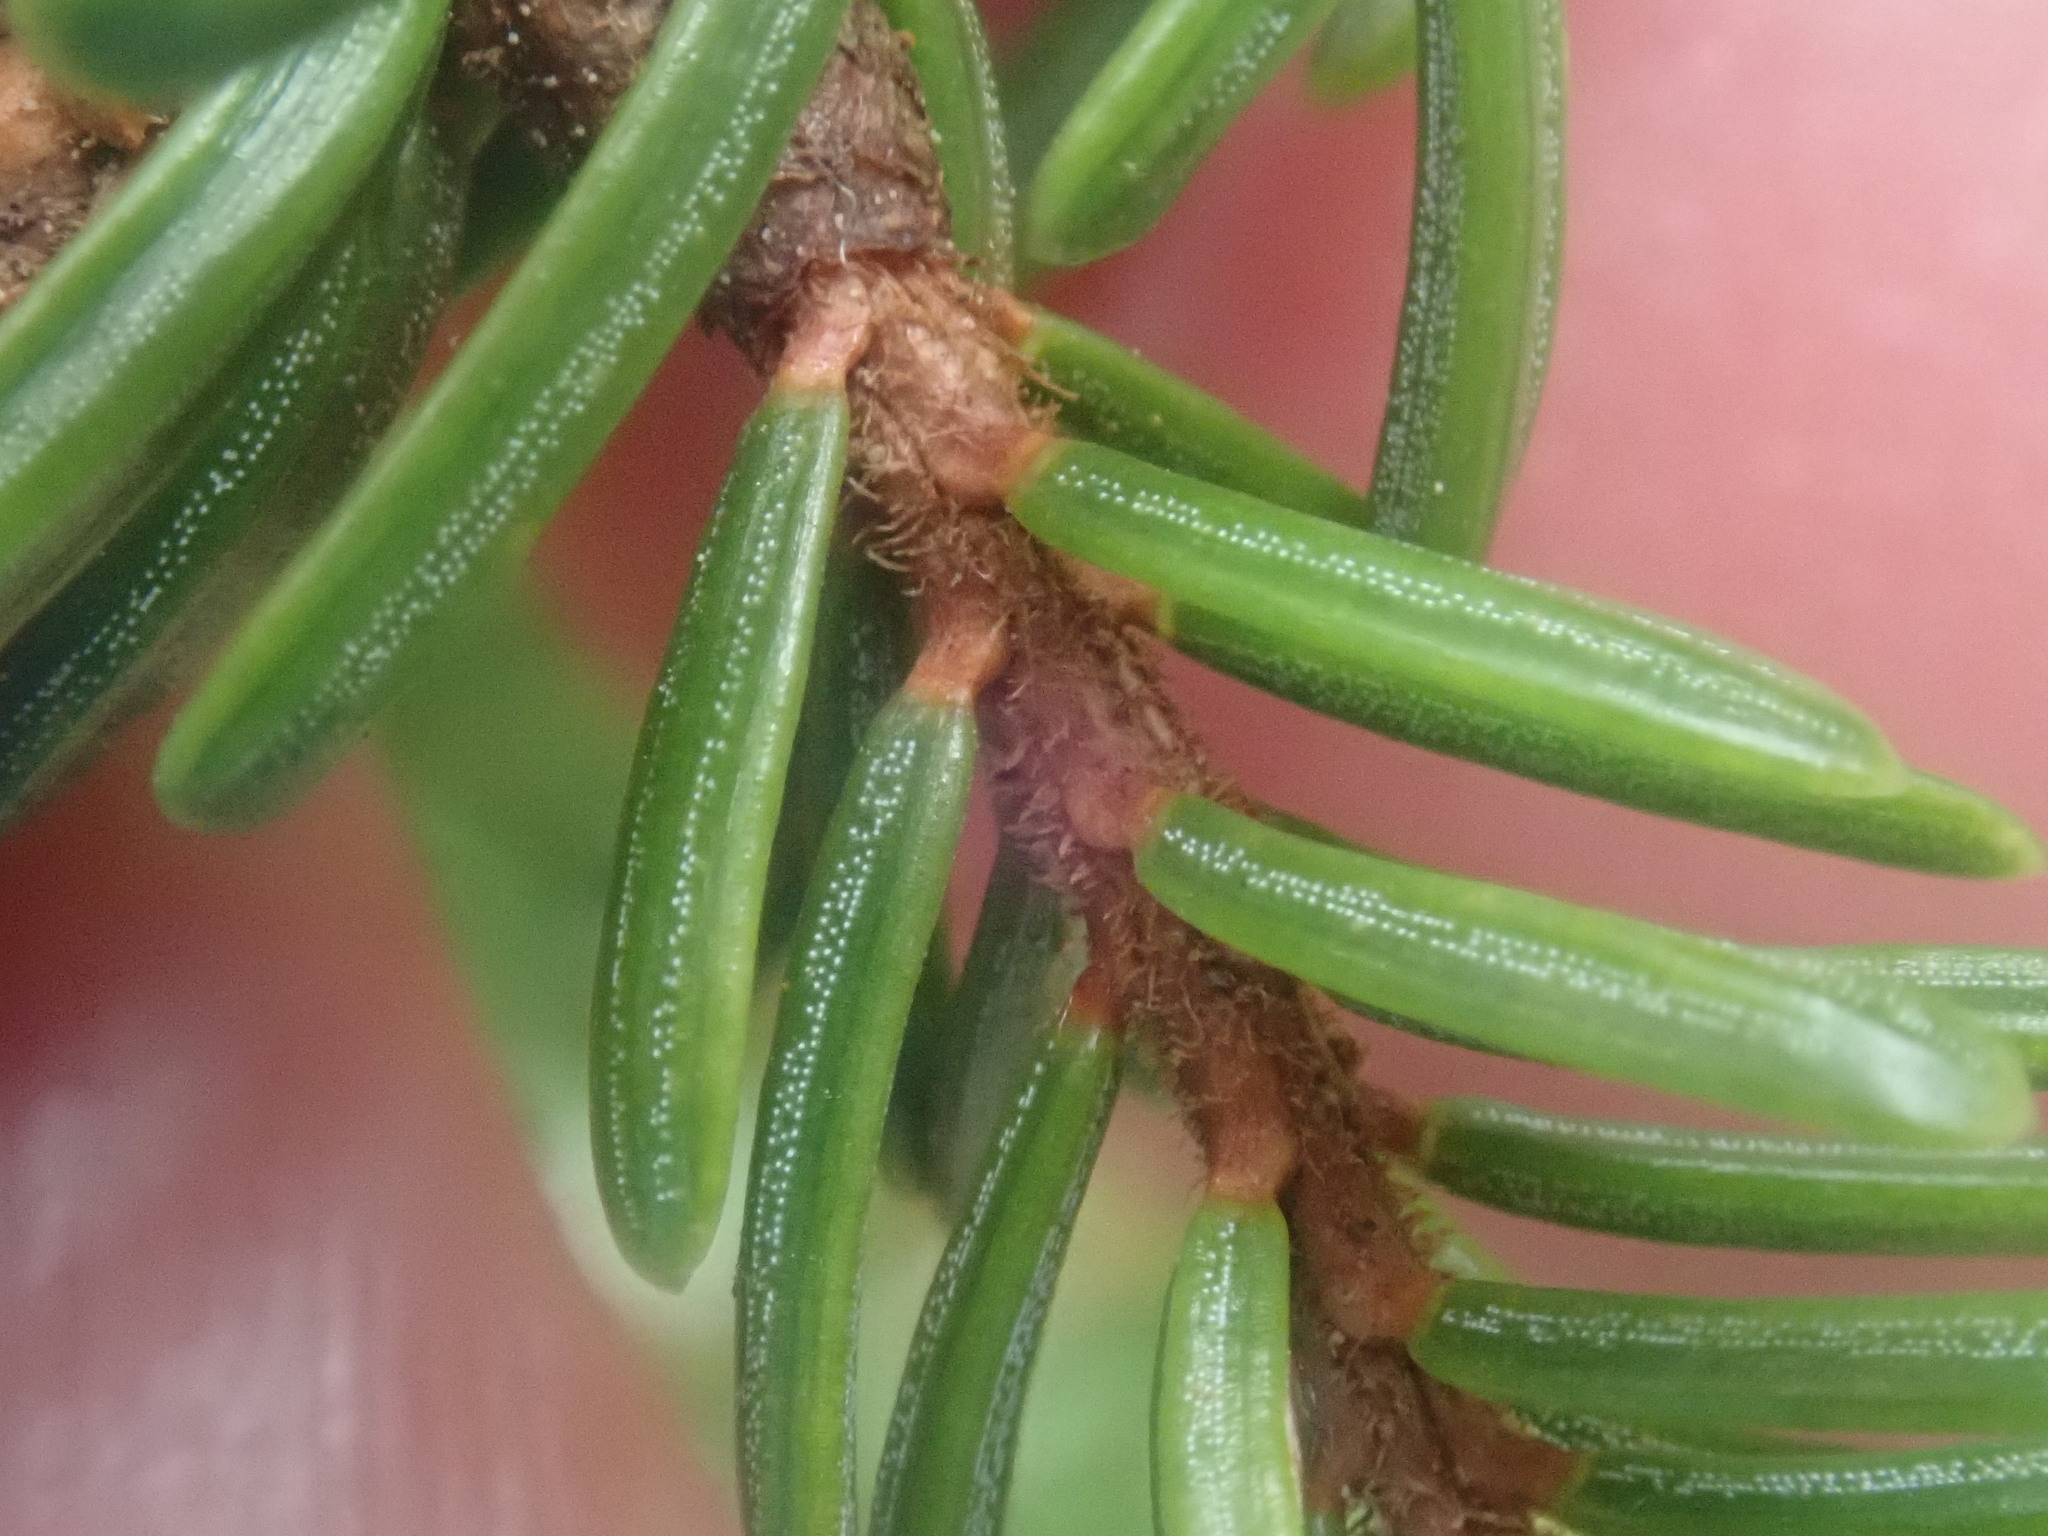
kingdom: Plantae
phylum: Tracheophyta
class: Pinopsida
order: Pinales
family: Pinaceae
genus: Picea
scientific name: Picea rubens
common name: Red spruce
